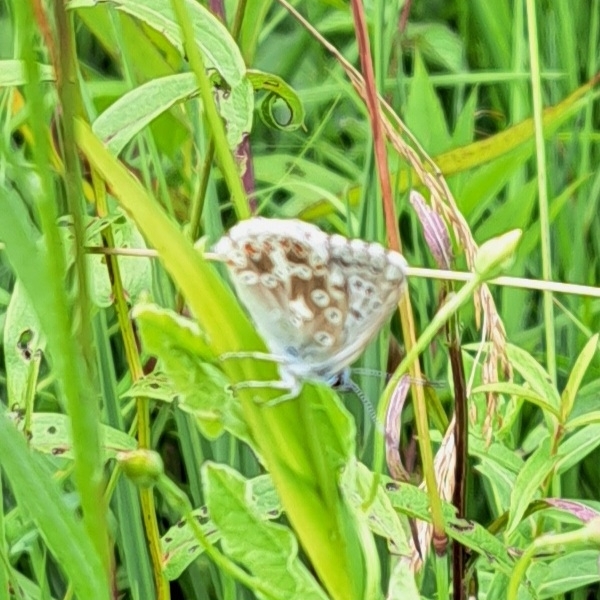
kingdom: Animalia
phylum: Arthropoda
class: Insecta
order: Lepidoptera
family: Lycaenidae
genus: Lysandra
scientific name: Lysandra coridon
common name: Chalkhill blue
